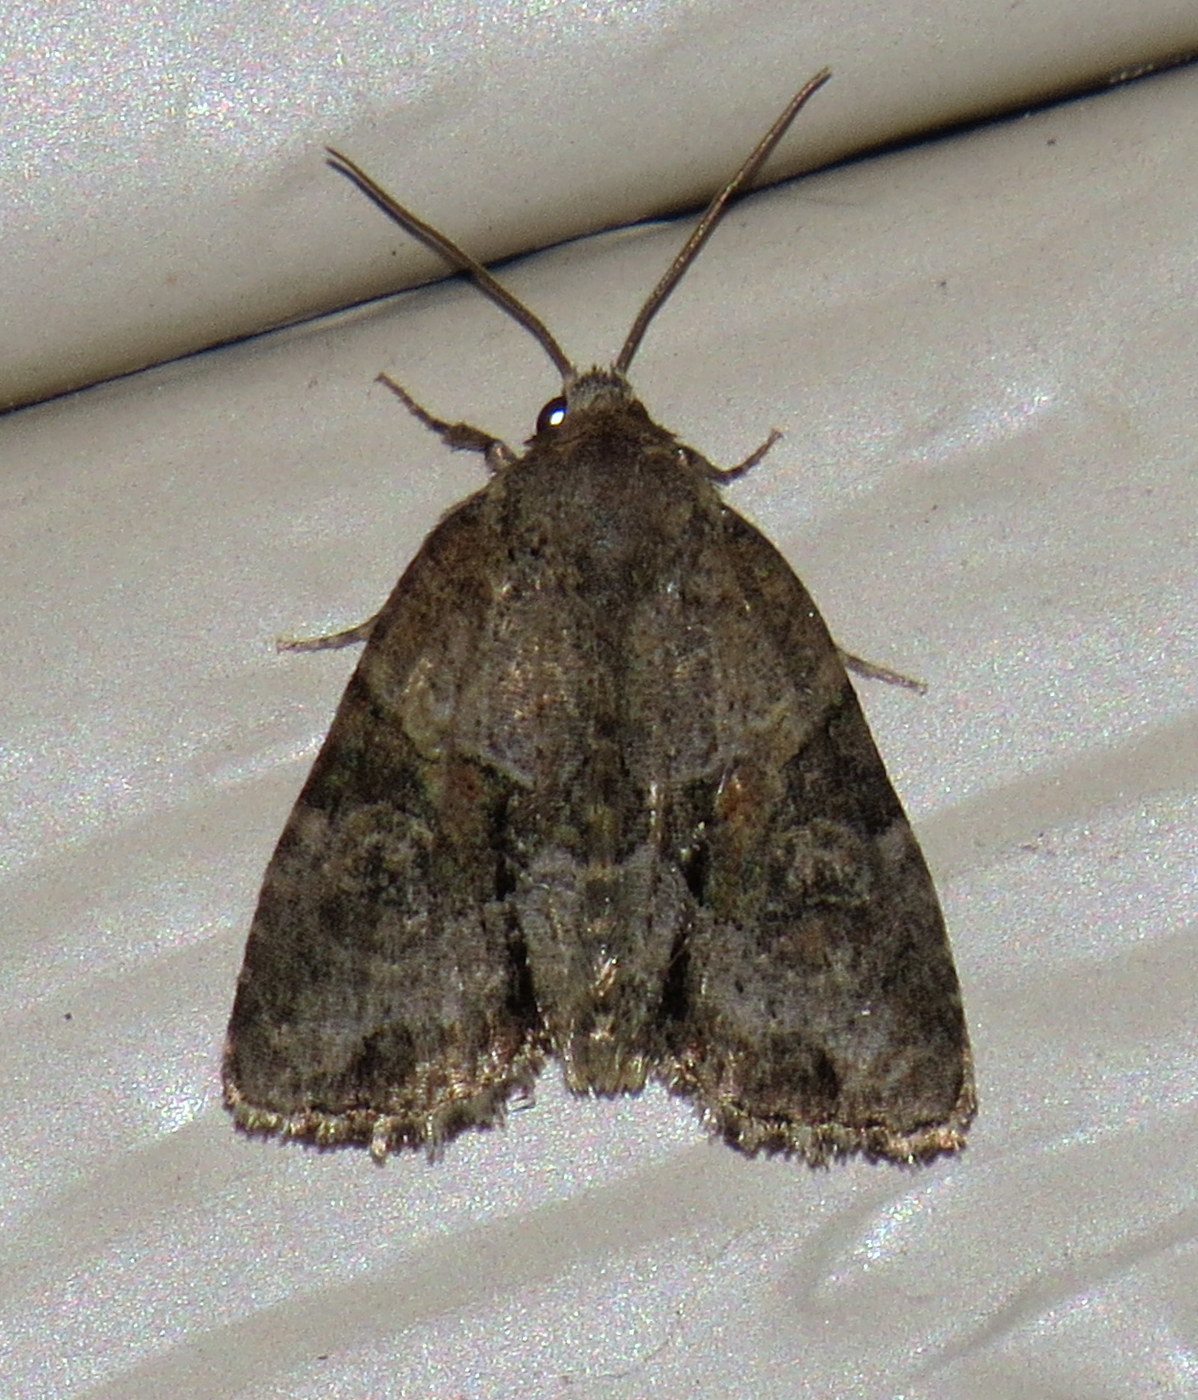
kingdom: Animalia
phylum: Arthropoda
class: Insecta
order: Lepidoptera
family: Noctuidae
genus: Neoligia
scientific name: Neoligia exhausta
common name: Exhausted brocade
